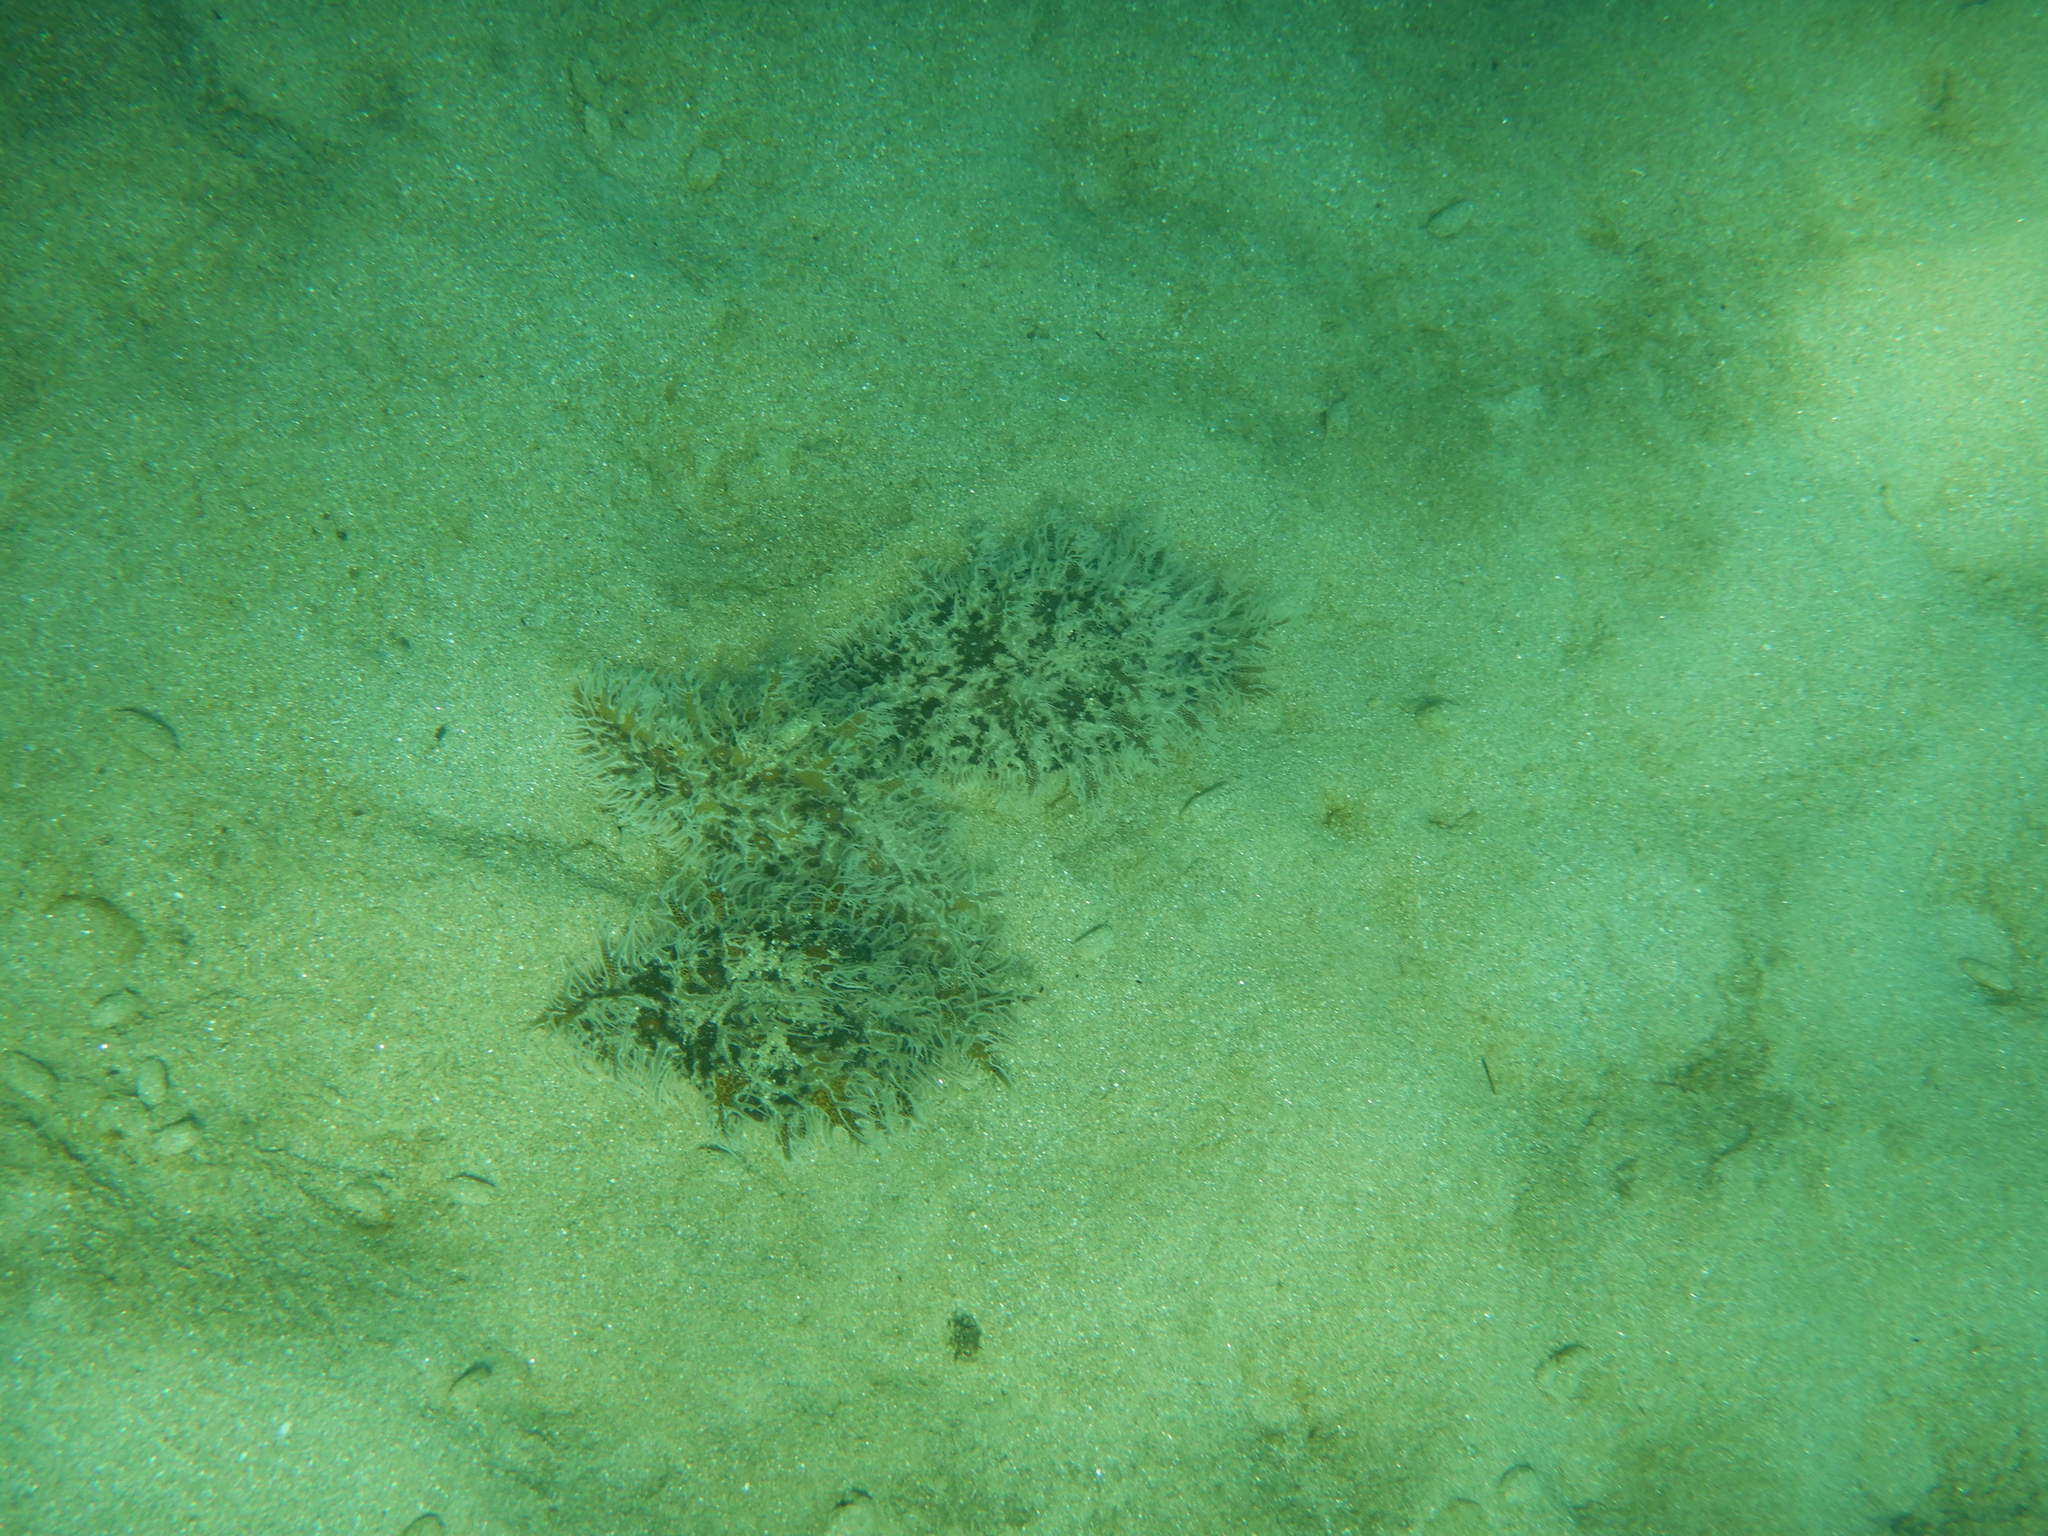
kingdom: Animalia
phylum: Mollusca
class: Gastropoda
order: Aplysiida
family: Aplysiidae
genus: Bursatella
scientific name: Bursatella leachii
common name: Shaggy sea hare
